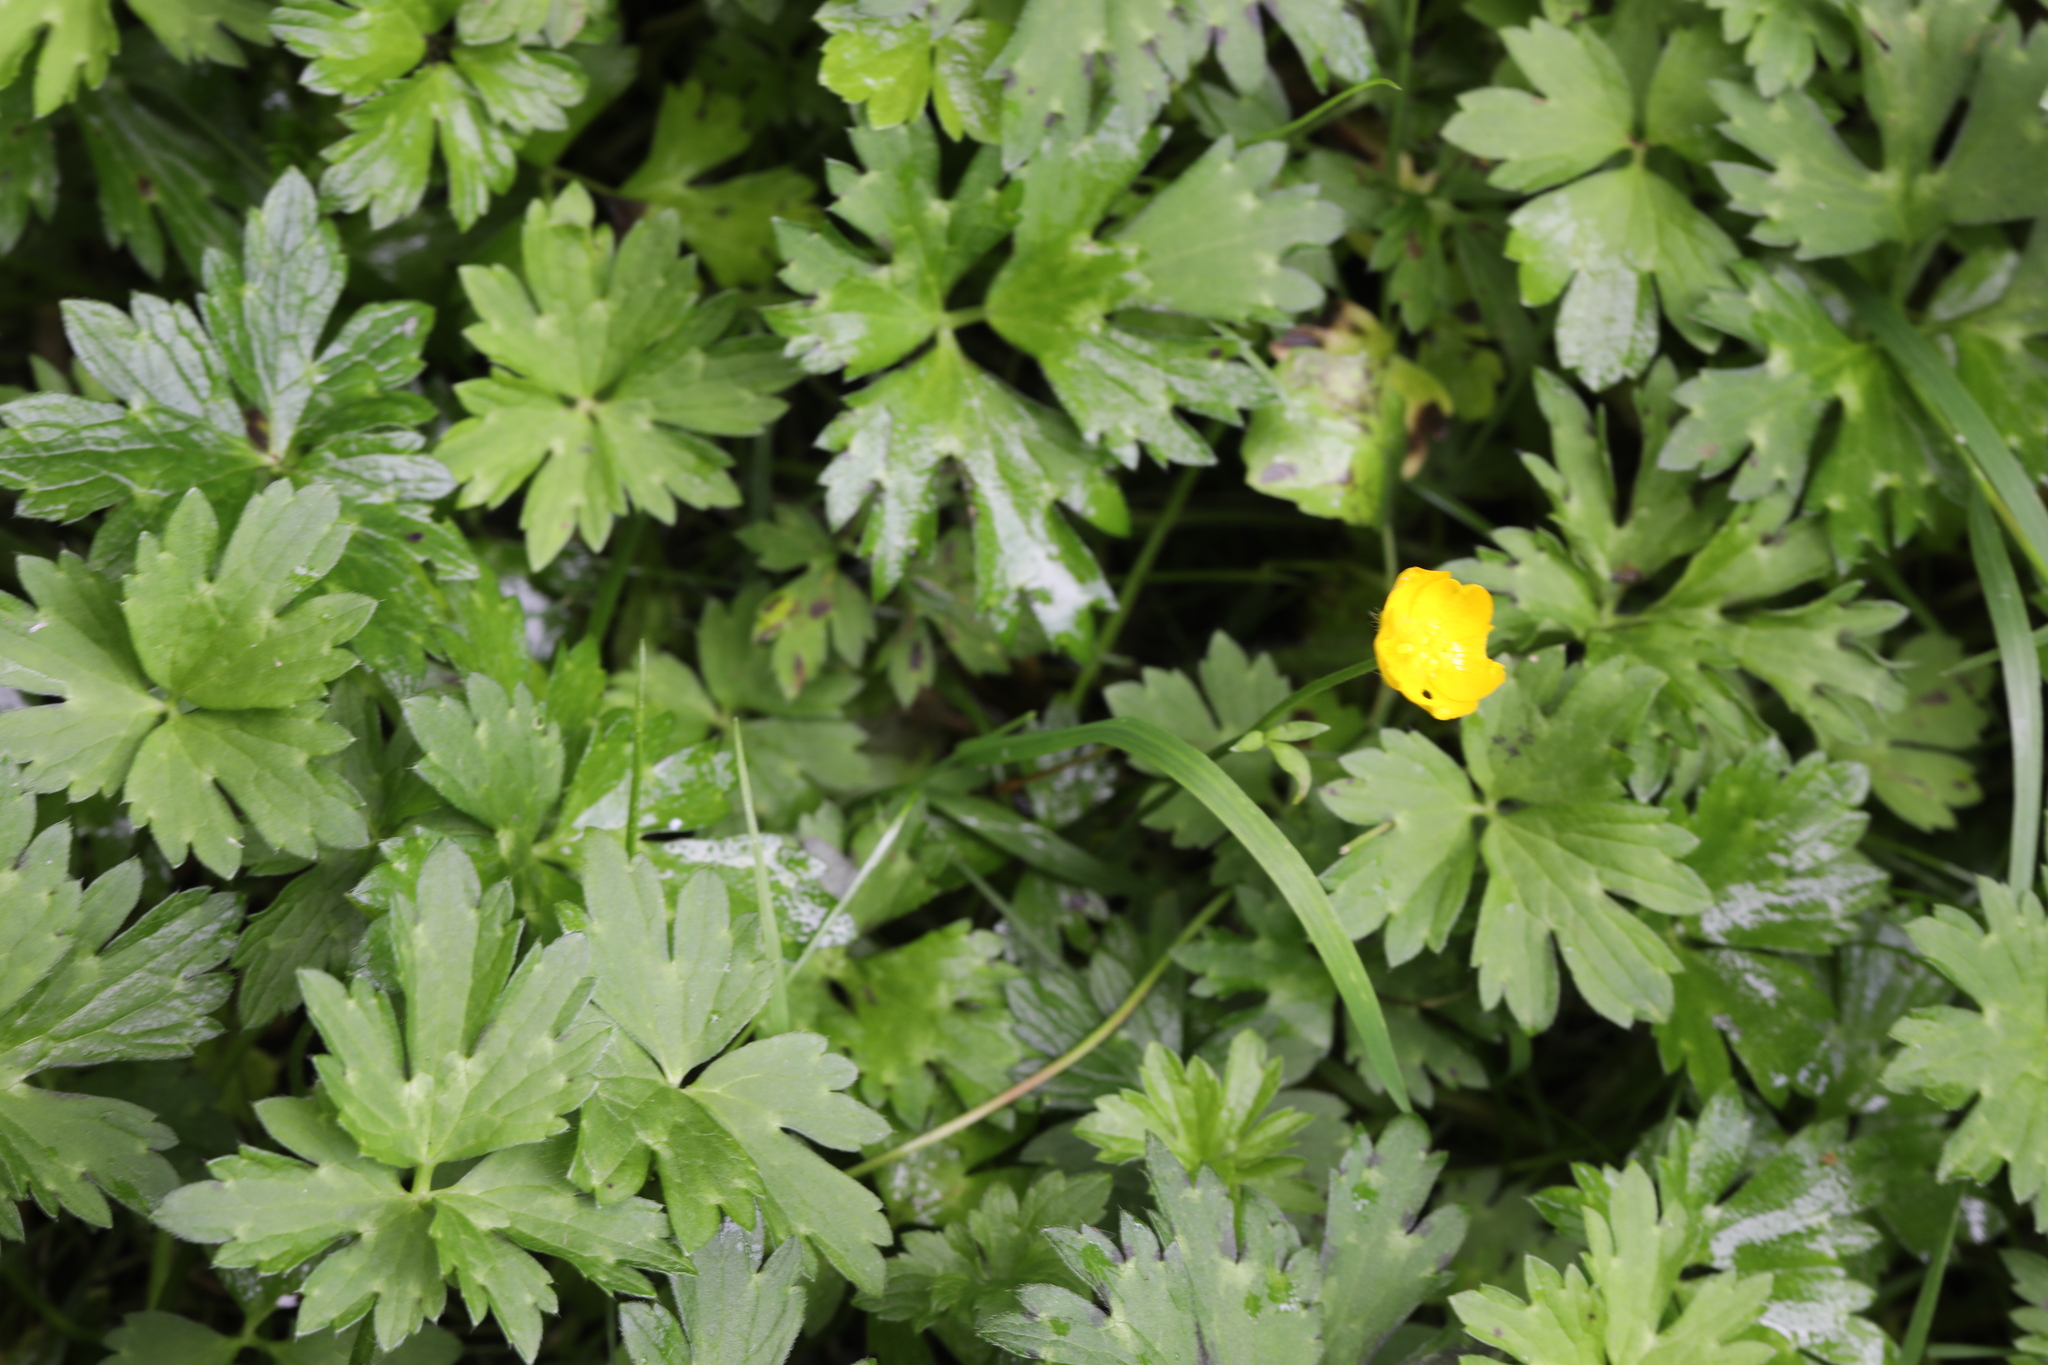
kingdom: Plantae
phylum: Tracheophyta
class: Magnoliopsida
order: Ranunculales
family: Ranunculaceae
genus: Ranunculus
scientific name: Ranunculus repens
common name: Creeping buttercup
